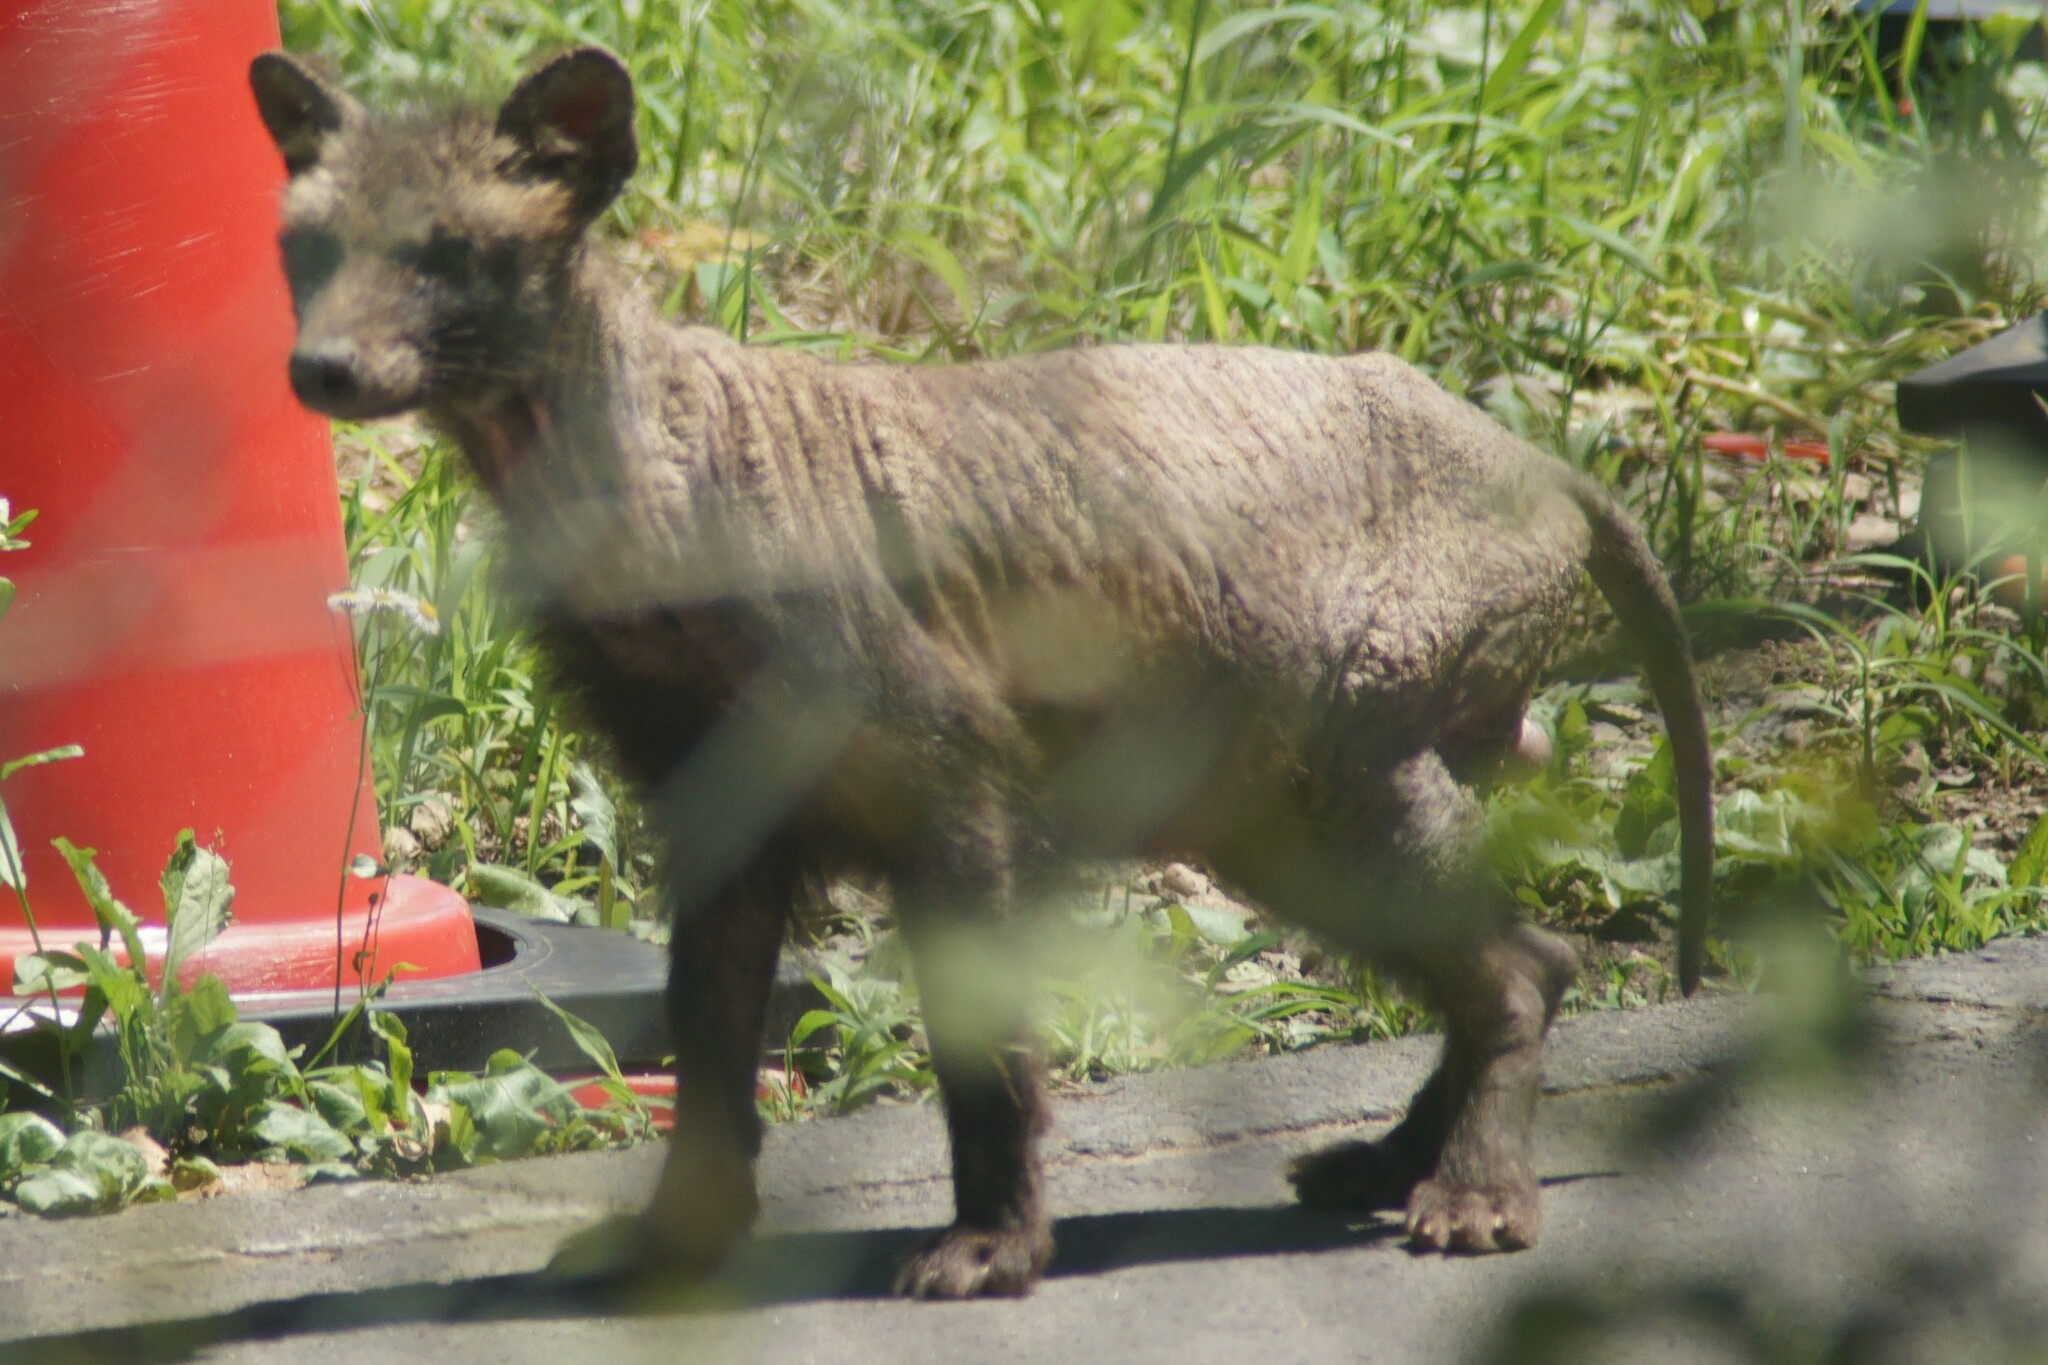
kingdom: Animalia
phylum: Chordata
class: Mammalia
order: Carnivora
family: Canidae
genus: Nyctereutes
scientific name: Nyctereutes
